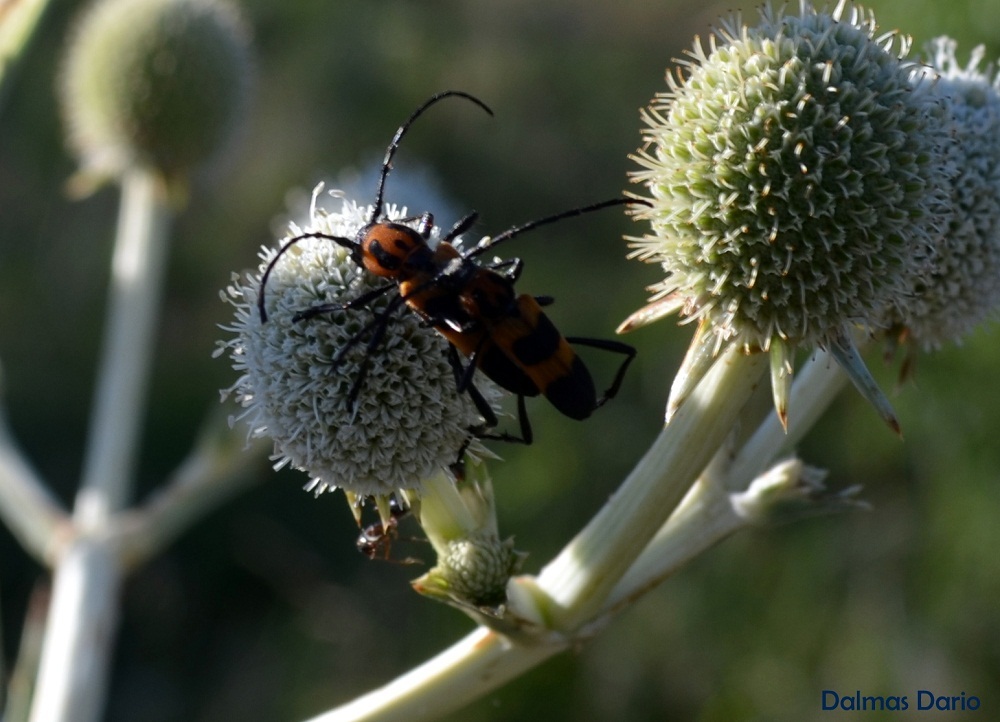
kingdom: Animalia
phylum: Arthropoda
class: Insecta
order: Coleoptera
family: Cerambycidae
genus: Erythrochiton
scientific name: Erythrochiton jucundum
